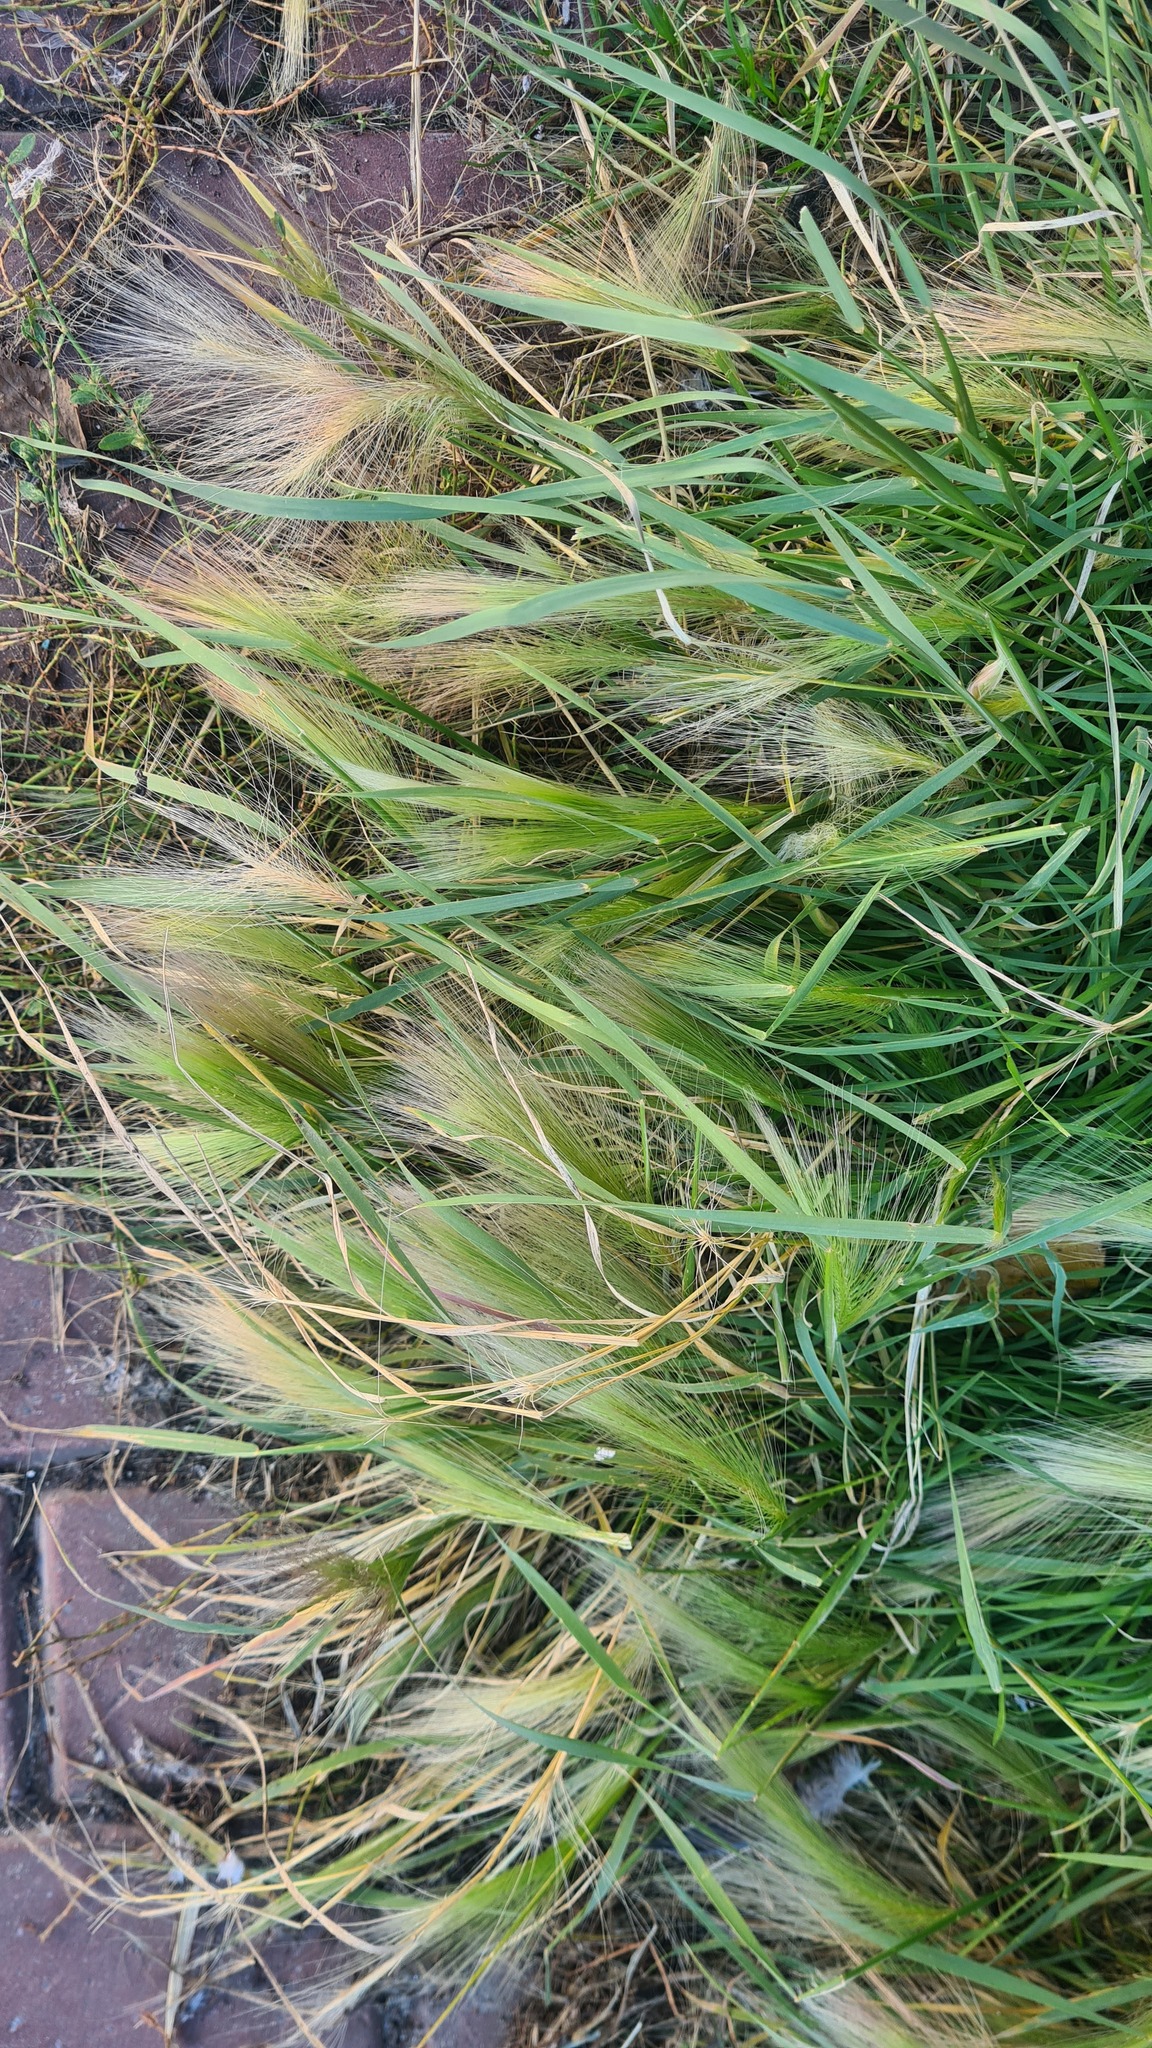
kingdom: Plantae
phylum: Tracheophyta
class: Liliopsida
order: Poales
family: Poaceae
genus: Hordeum
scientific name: Hordeum jubatum
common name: Foxtail barley
